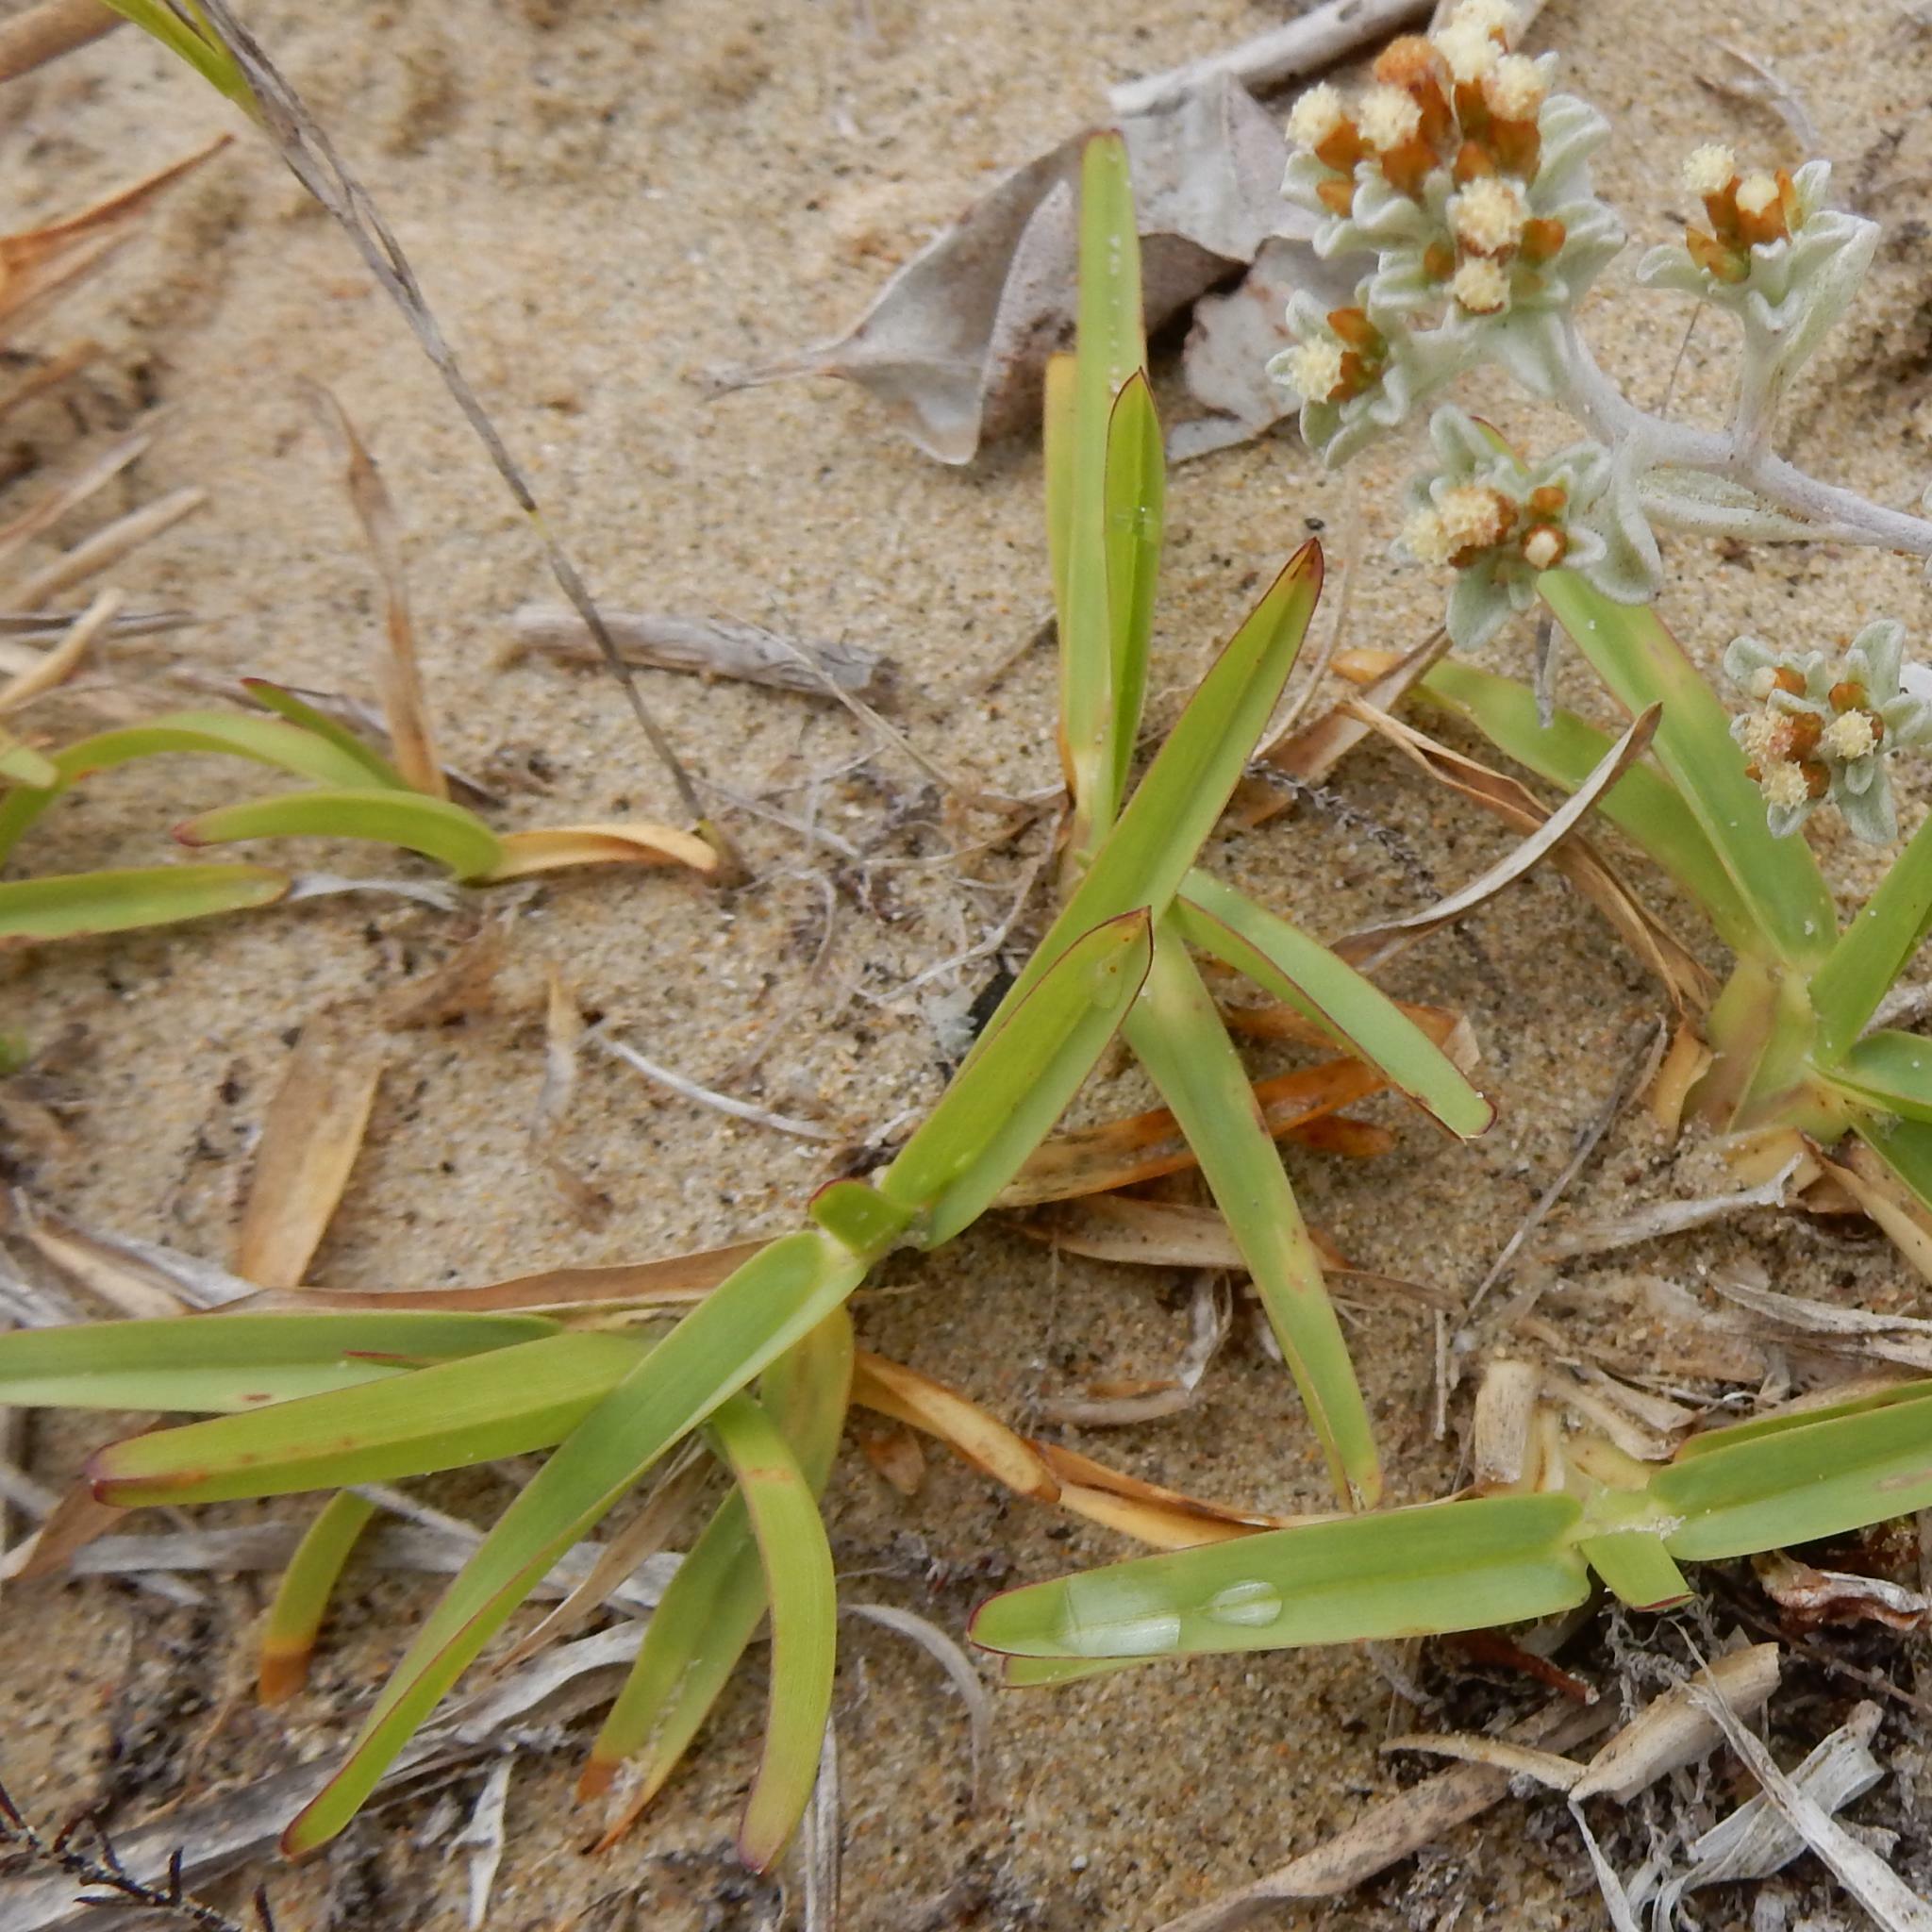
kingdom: Plantae
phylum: Tracheophyta
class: Liliopsida
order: Poales
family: Poaceae
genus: Stenotaphrum
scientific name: Stenotaphrum secundatum
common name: St. augustine grass
